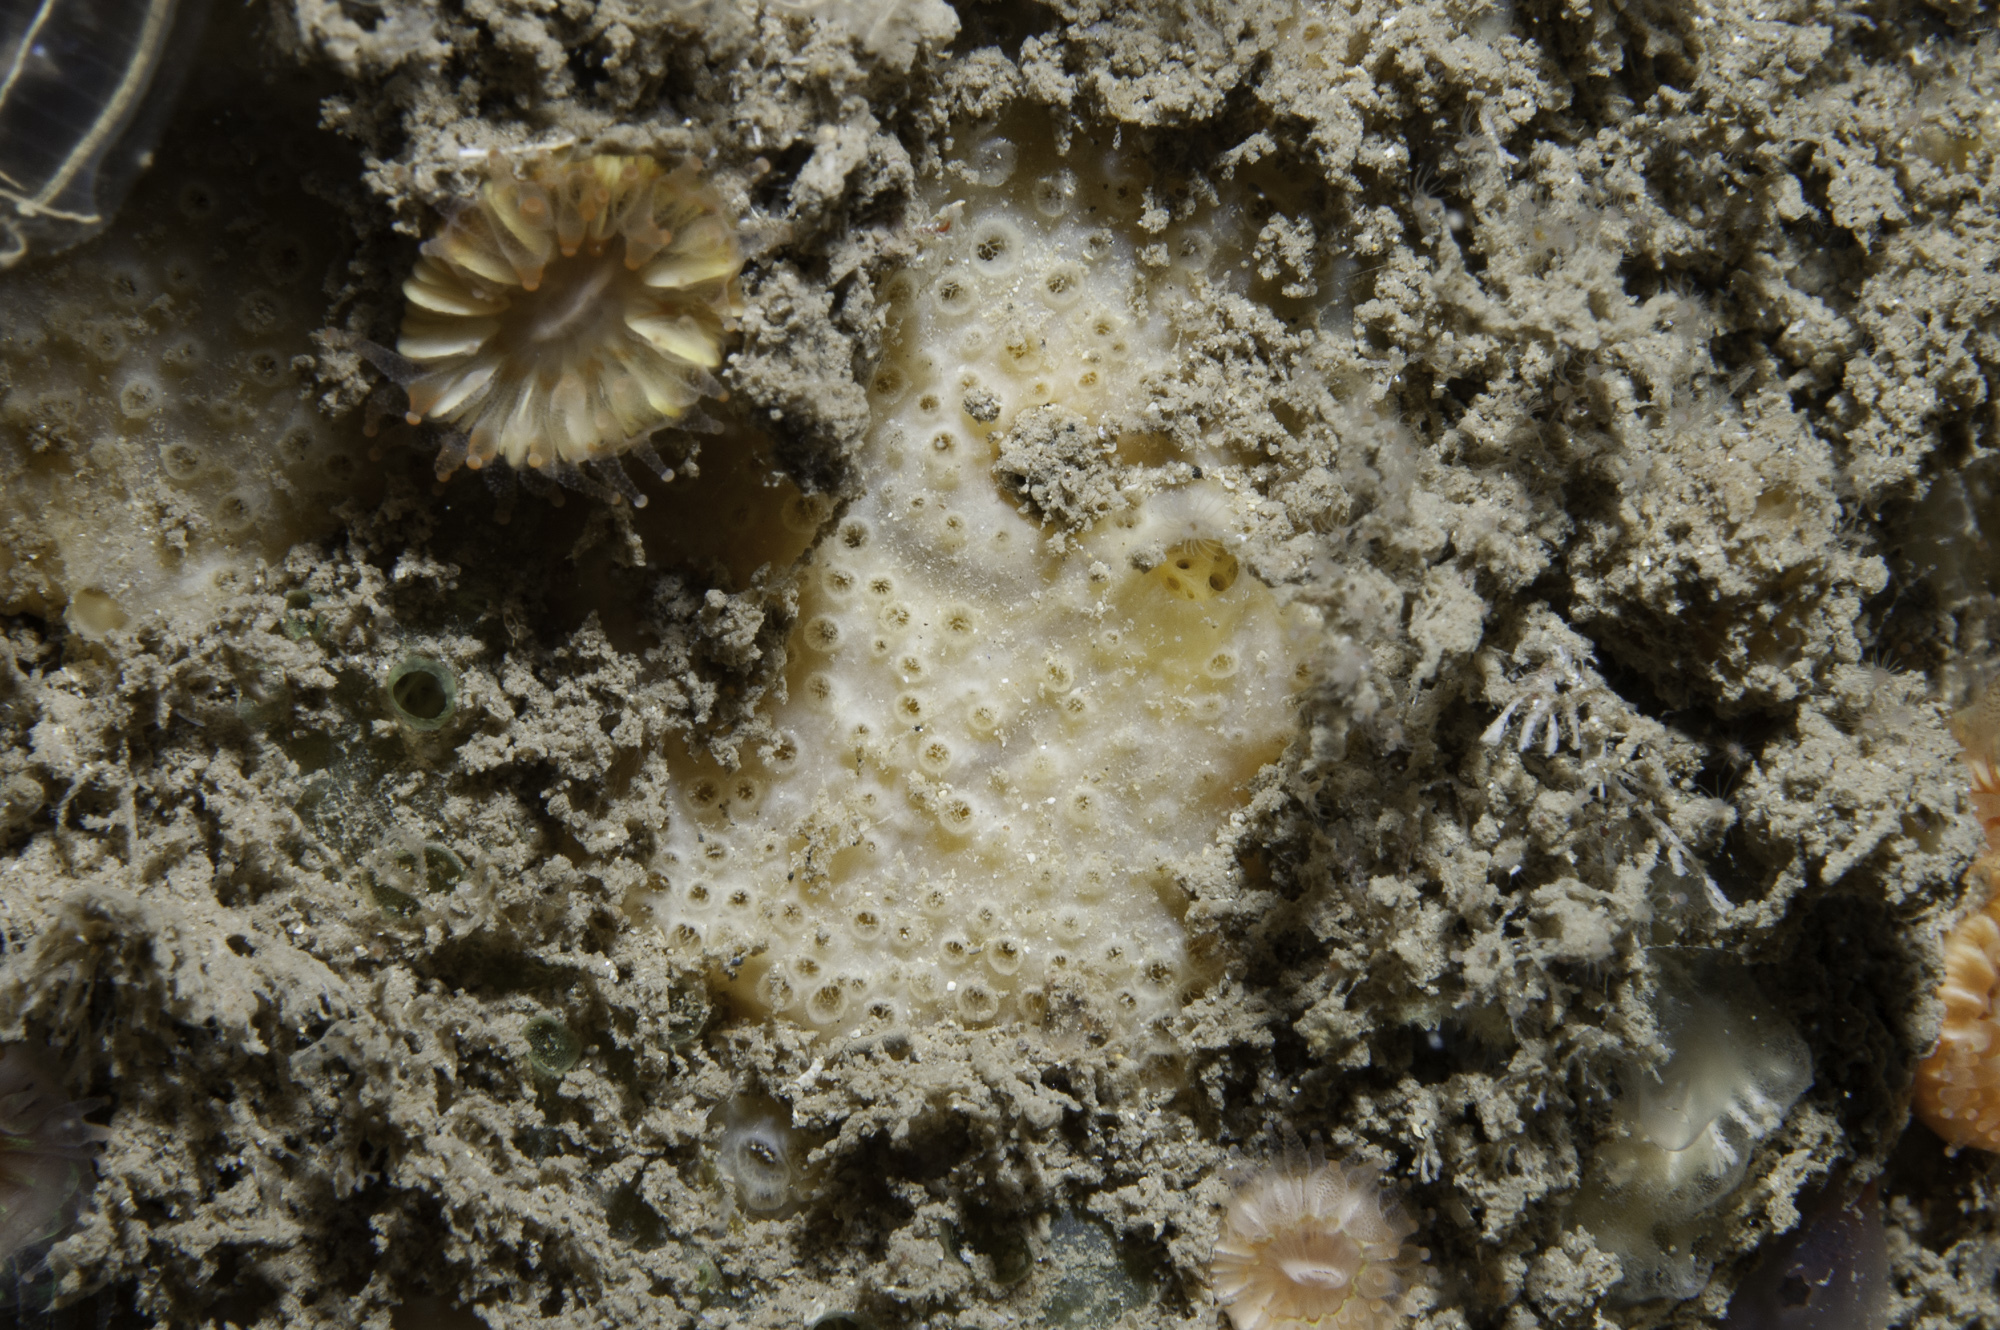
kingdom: Animalia
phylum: Porifera
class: Demospongiae
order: Poecilosclerida
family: Crellidae
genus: Crella
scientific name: Crella plana
